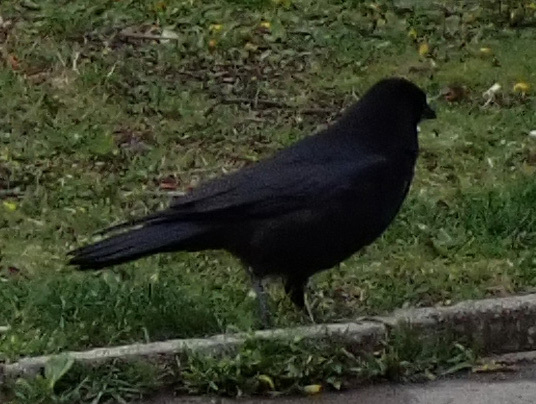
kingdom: Animalia
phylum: Chordata
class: Aves
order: Passeriformes
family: Corvidae
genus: Corvus
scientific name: Corvus corone
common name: Carrion crow
